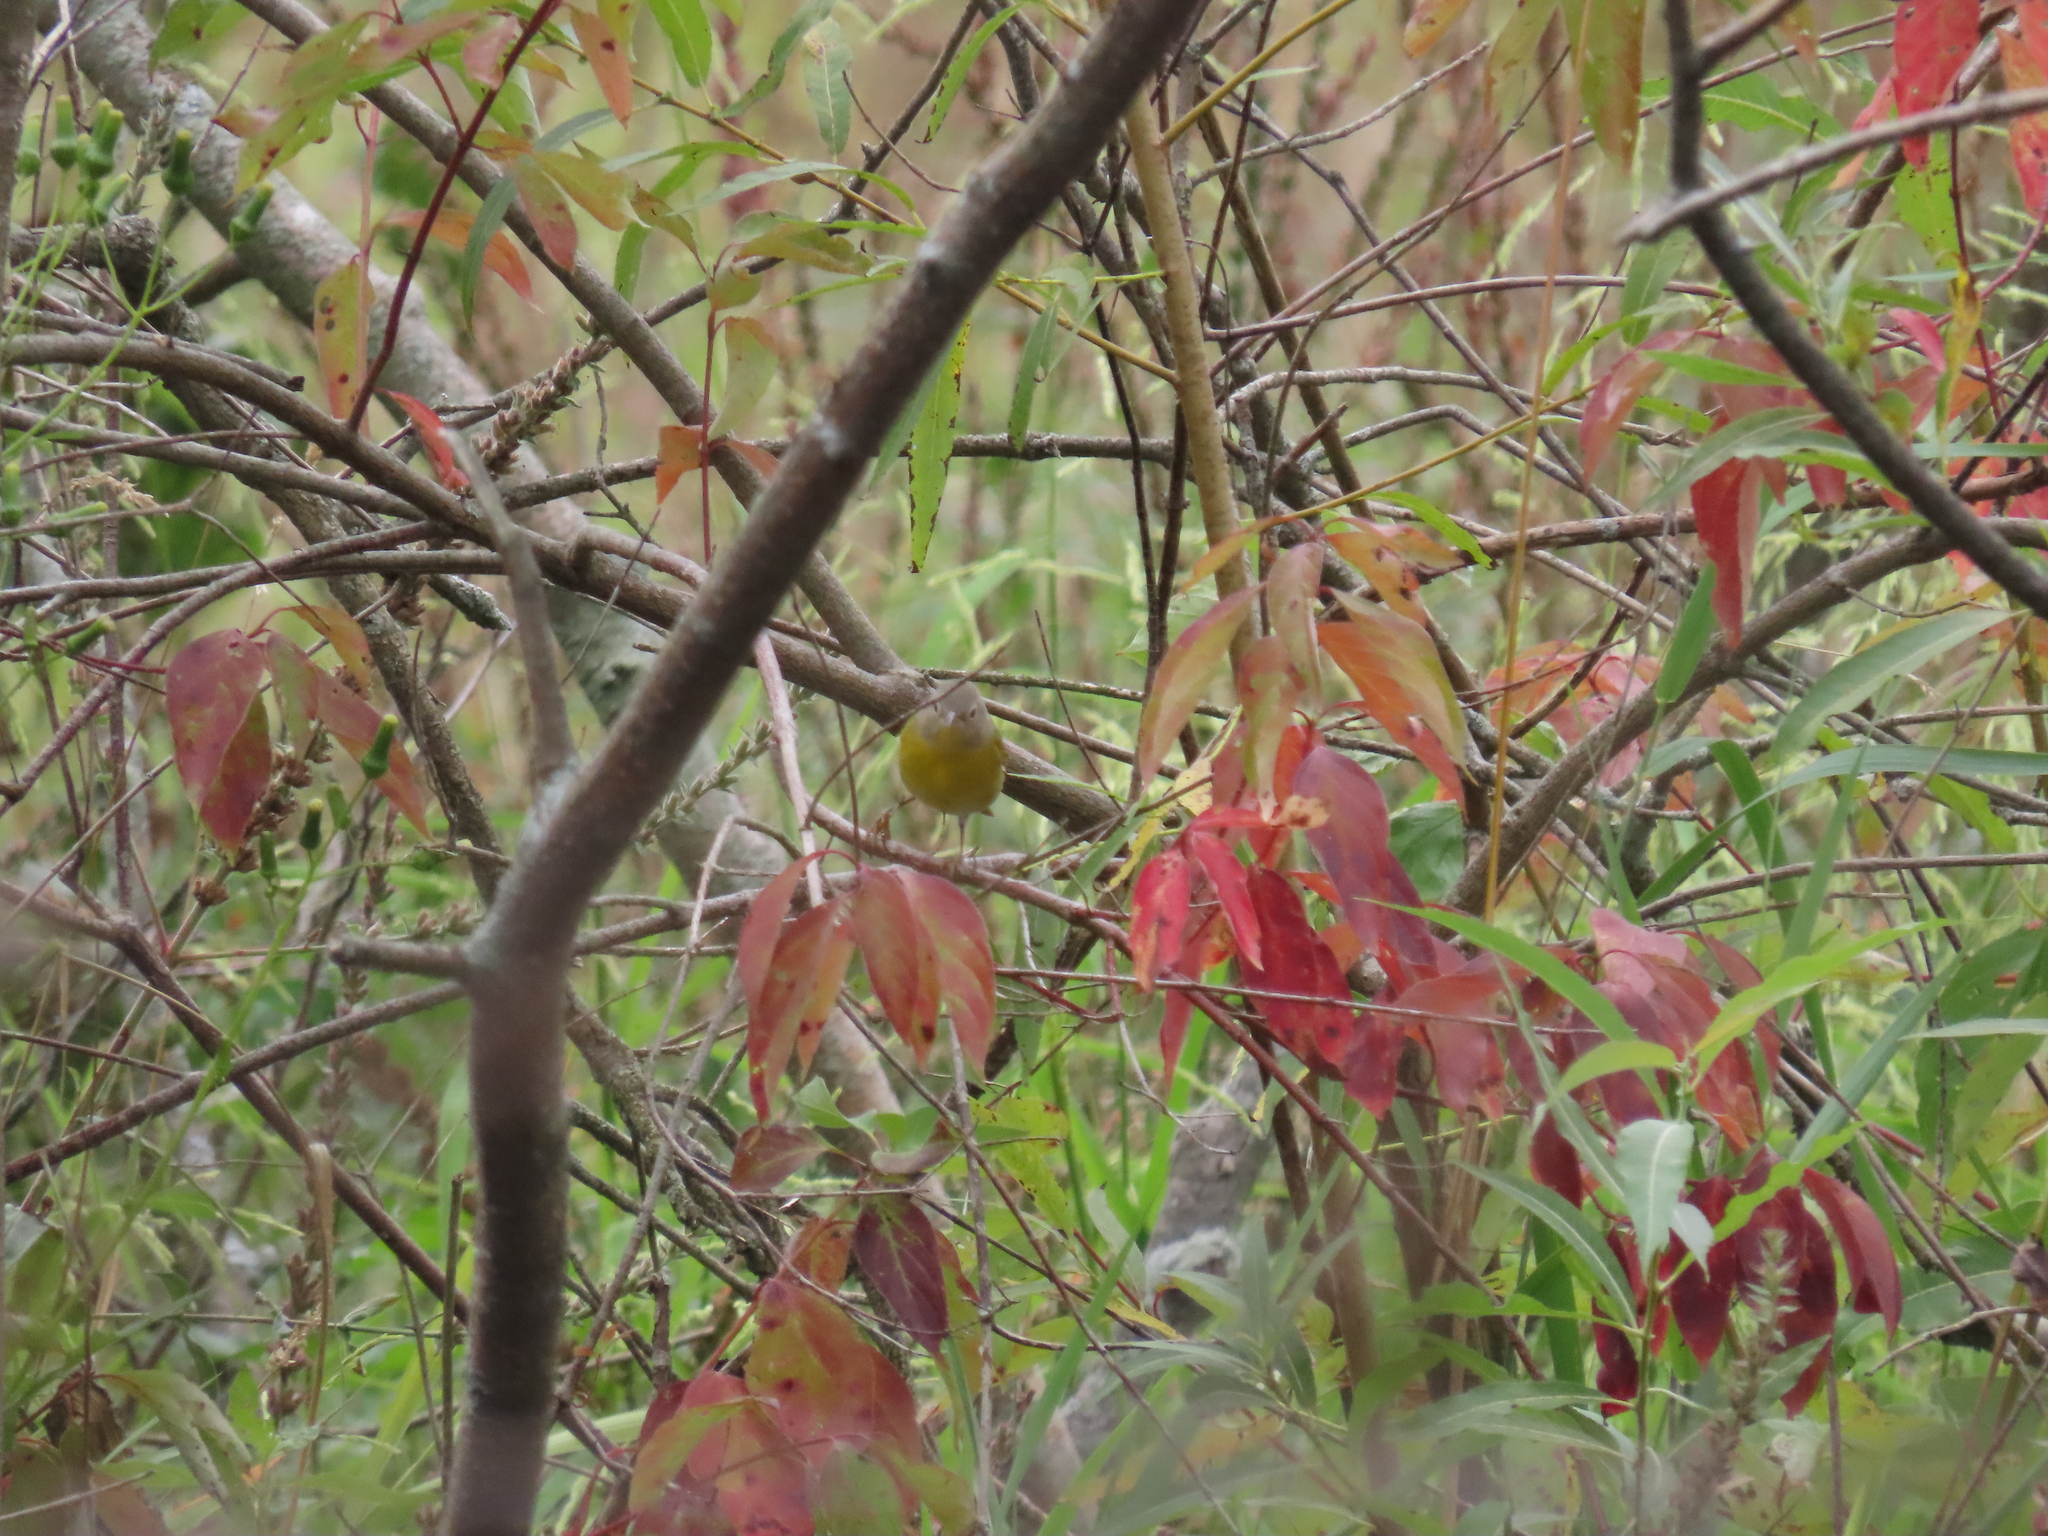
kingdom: Animalia
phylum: Chordata
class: Aves
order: Passeriformes
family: Parulidae
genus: Leiothlypis
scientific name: Leiothlypis ruficapilla
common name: Nashville warbler
